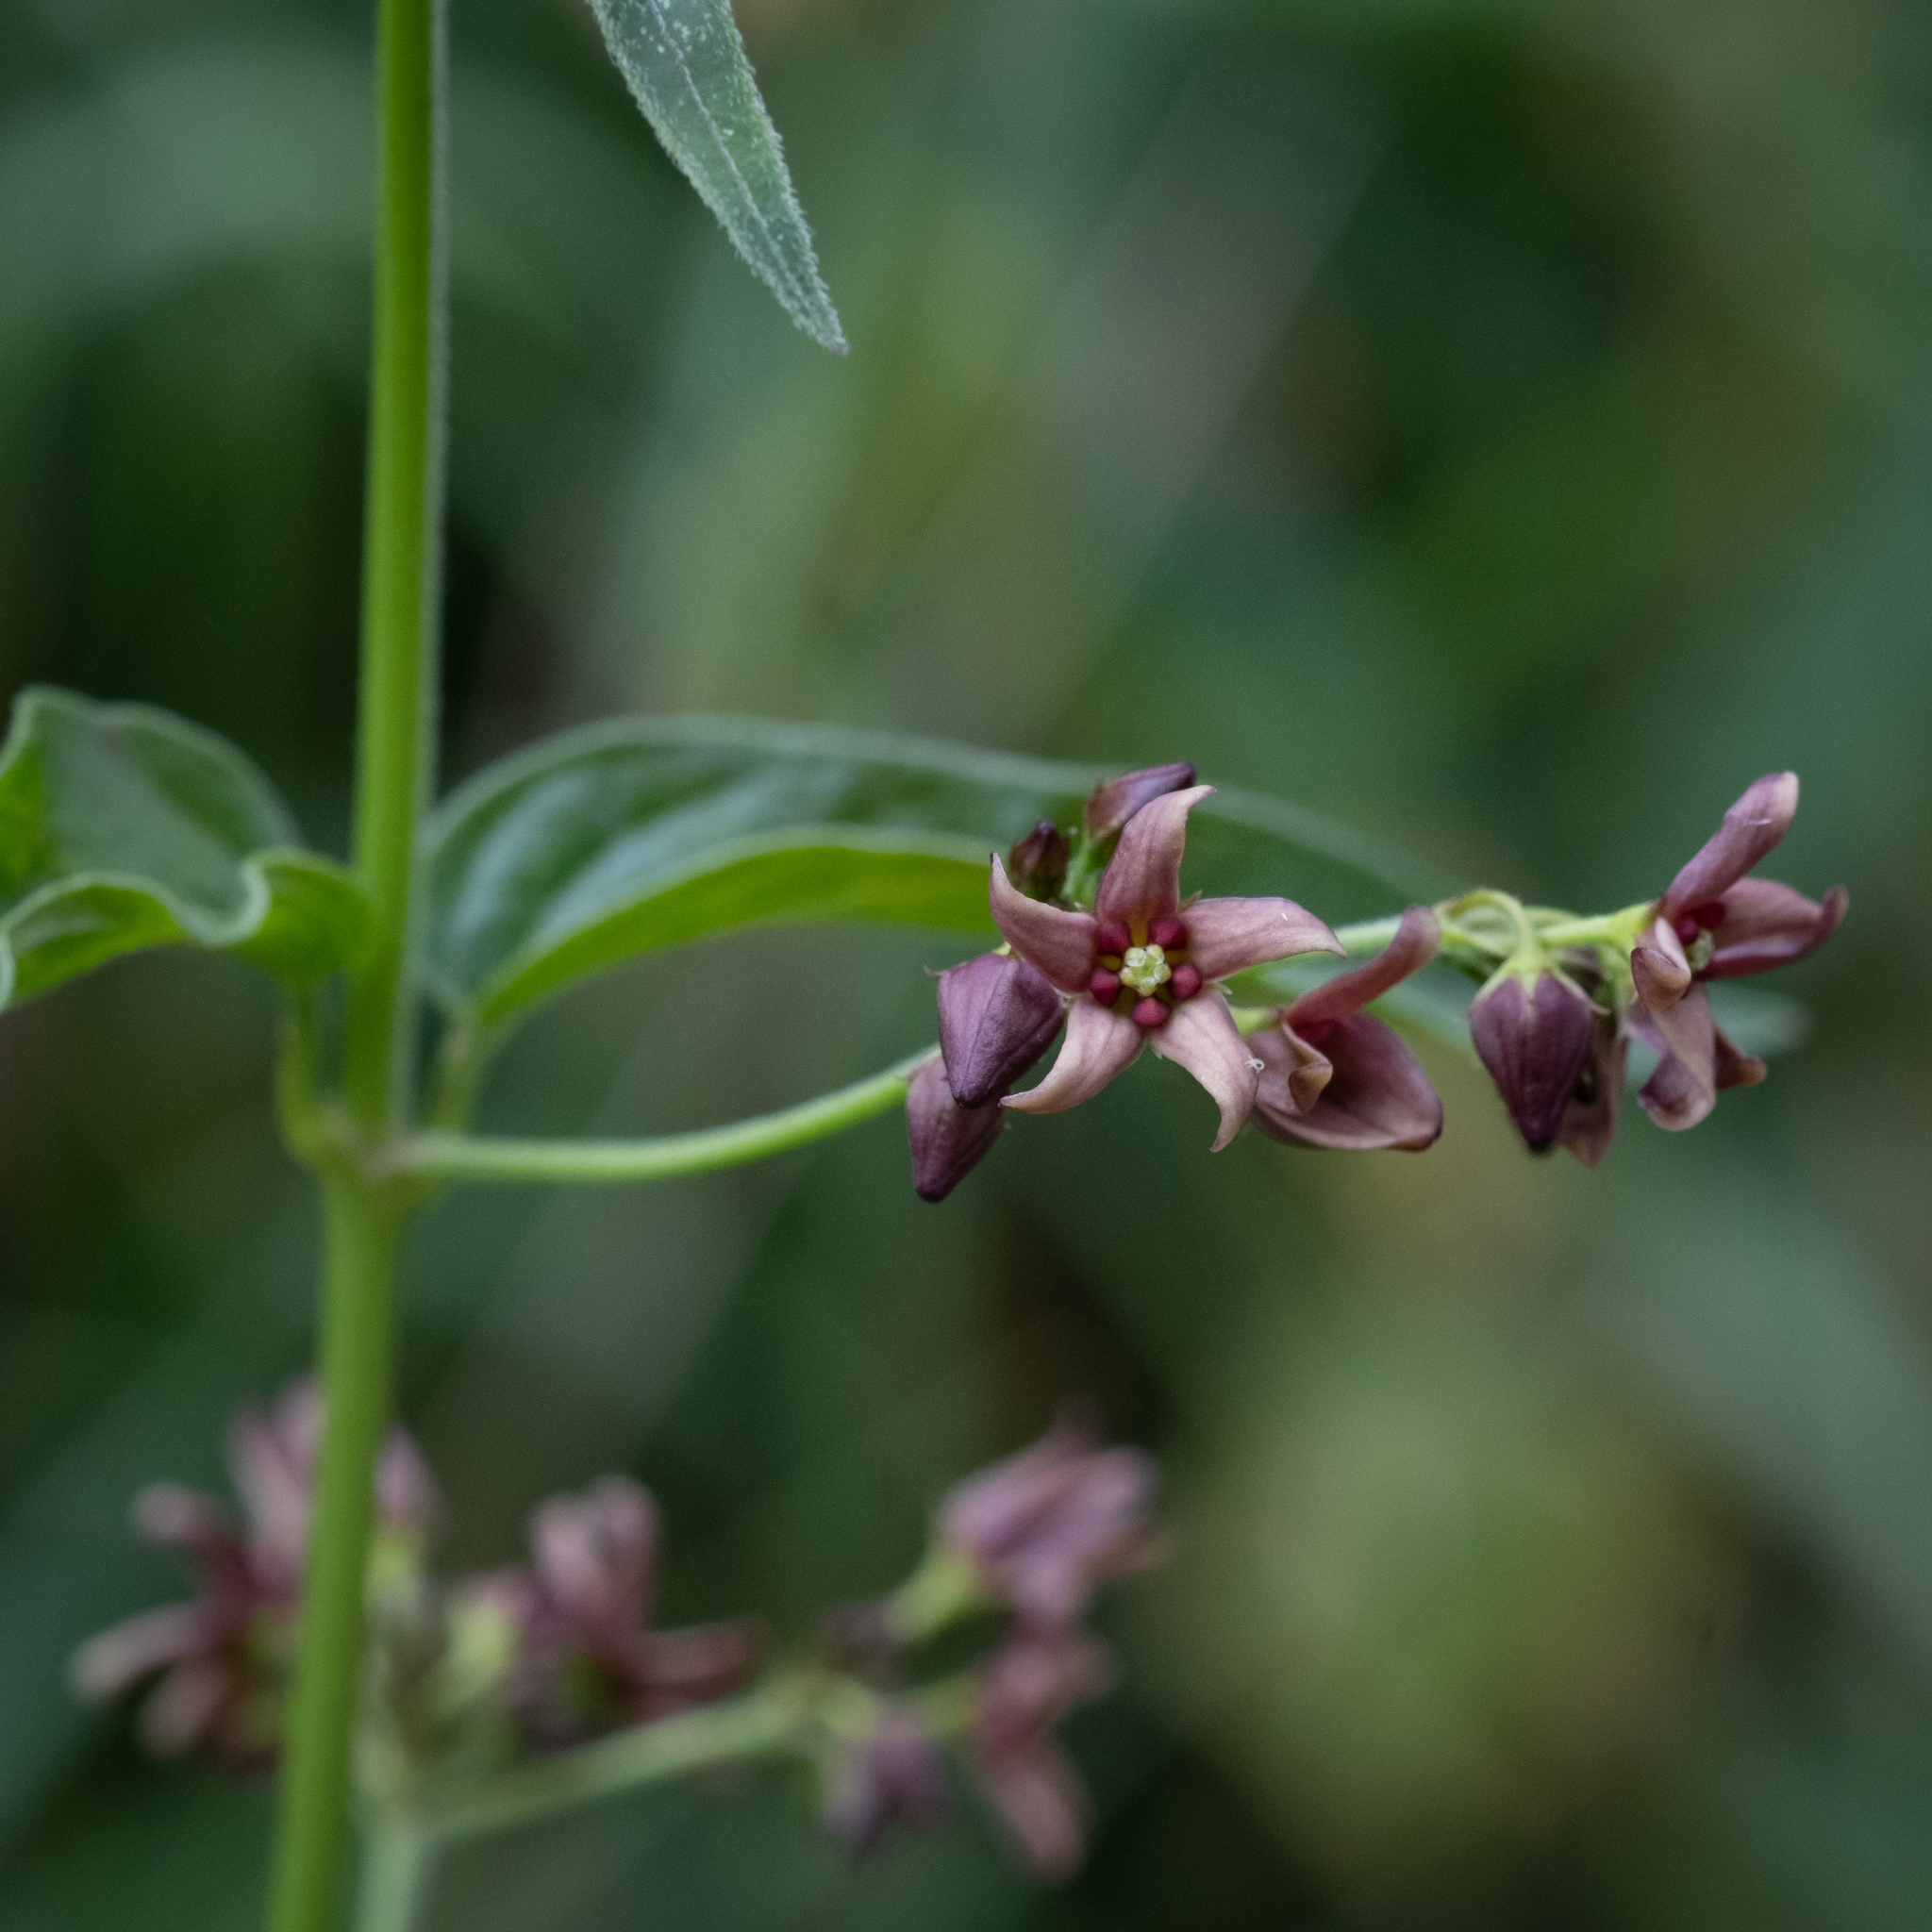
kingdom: Plantae
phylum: Tracheophyta
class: Magnoliopsida
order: Gentianales
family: Apocynaceae
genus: Vincetoxicum
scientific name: Vincetoxicum rossicum
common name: Dog-strangling vine
